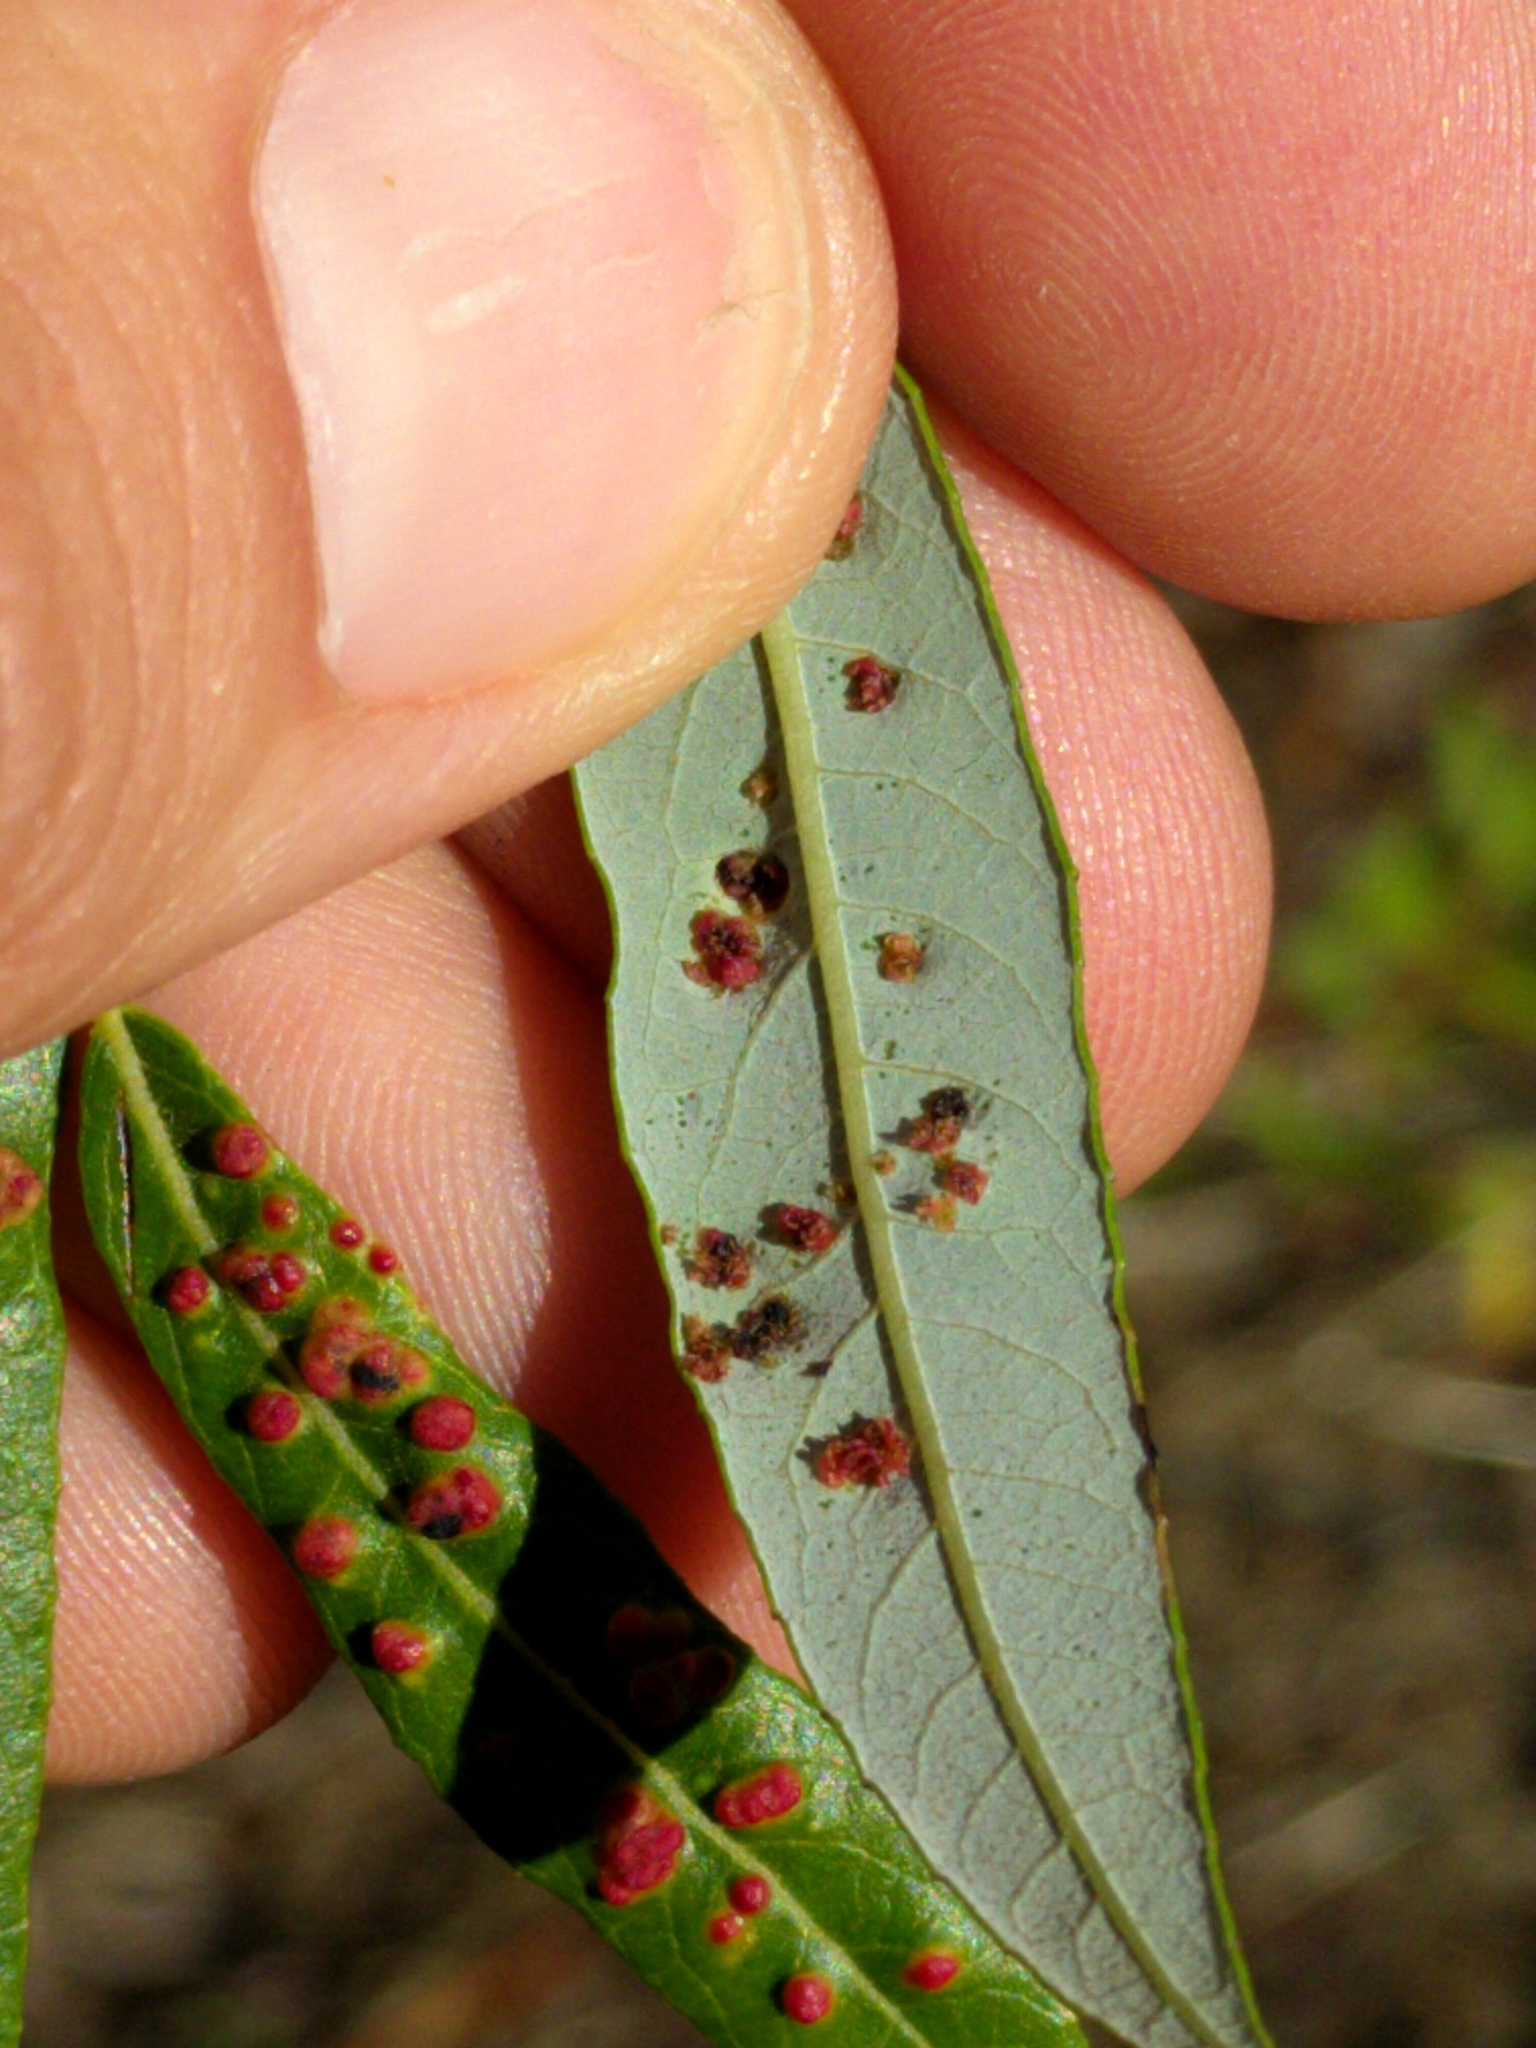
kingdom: Animalia
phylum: Arthropoda
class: Arachnida
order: Trombidiformes
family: Eriophyidae
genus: Aculus
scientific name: Aculus tetanothrix
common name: Willow bead gall mite
